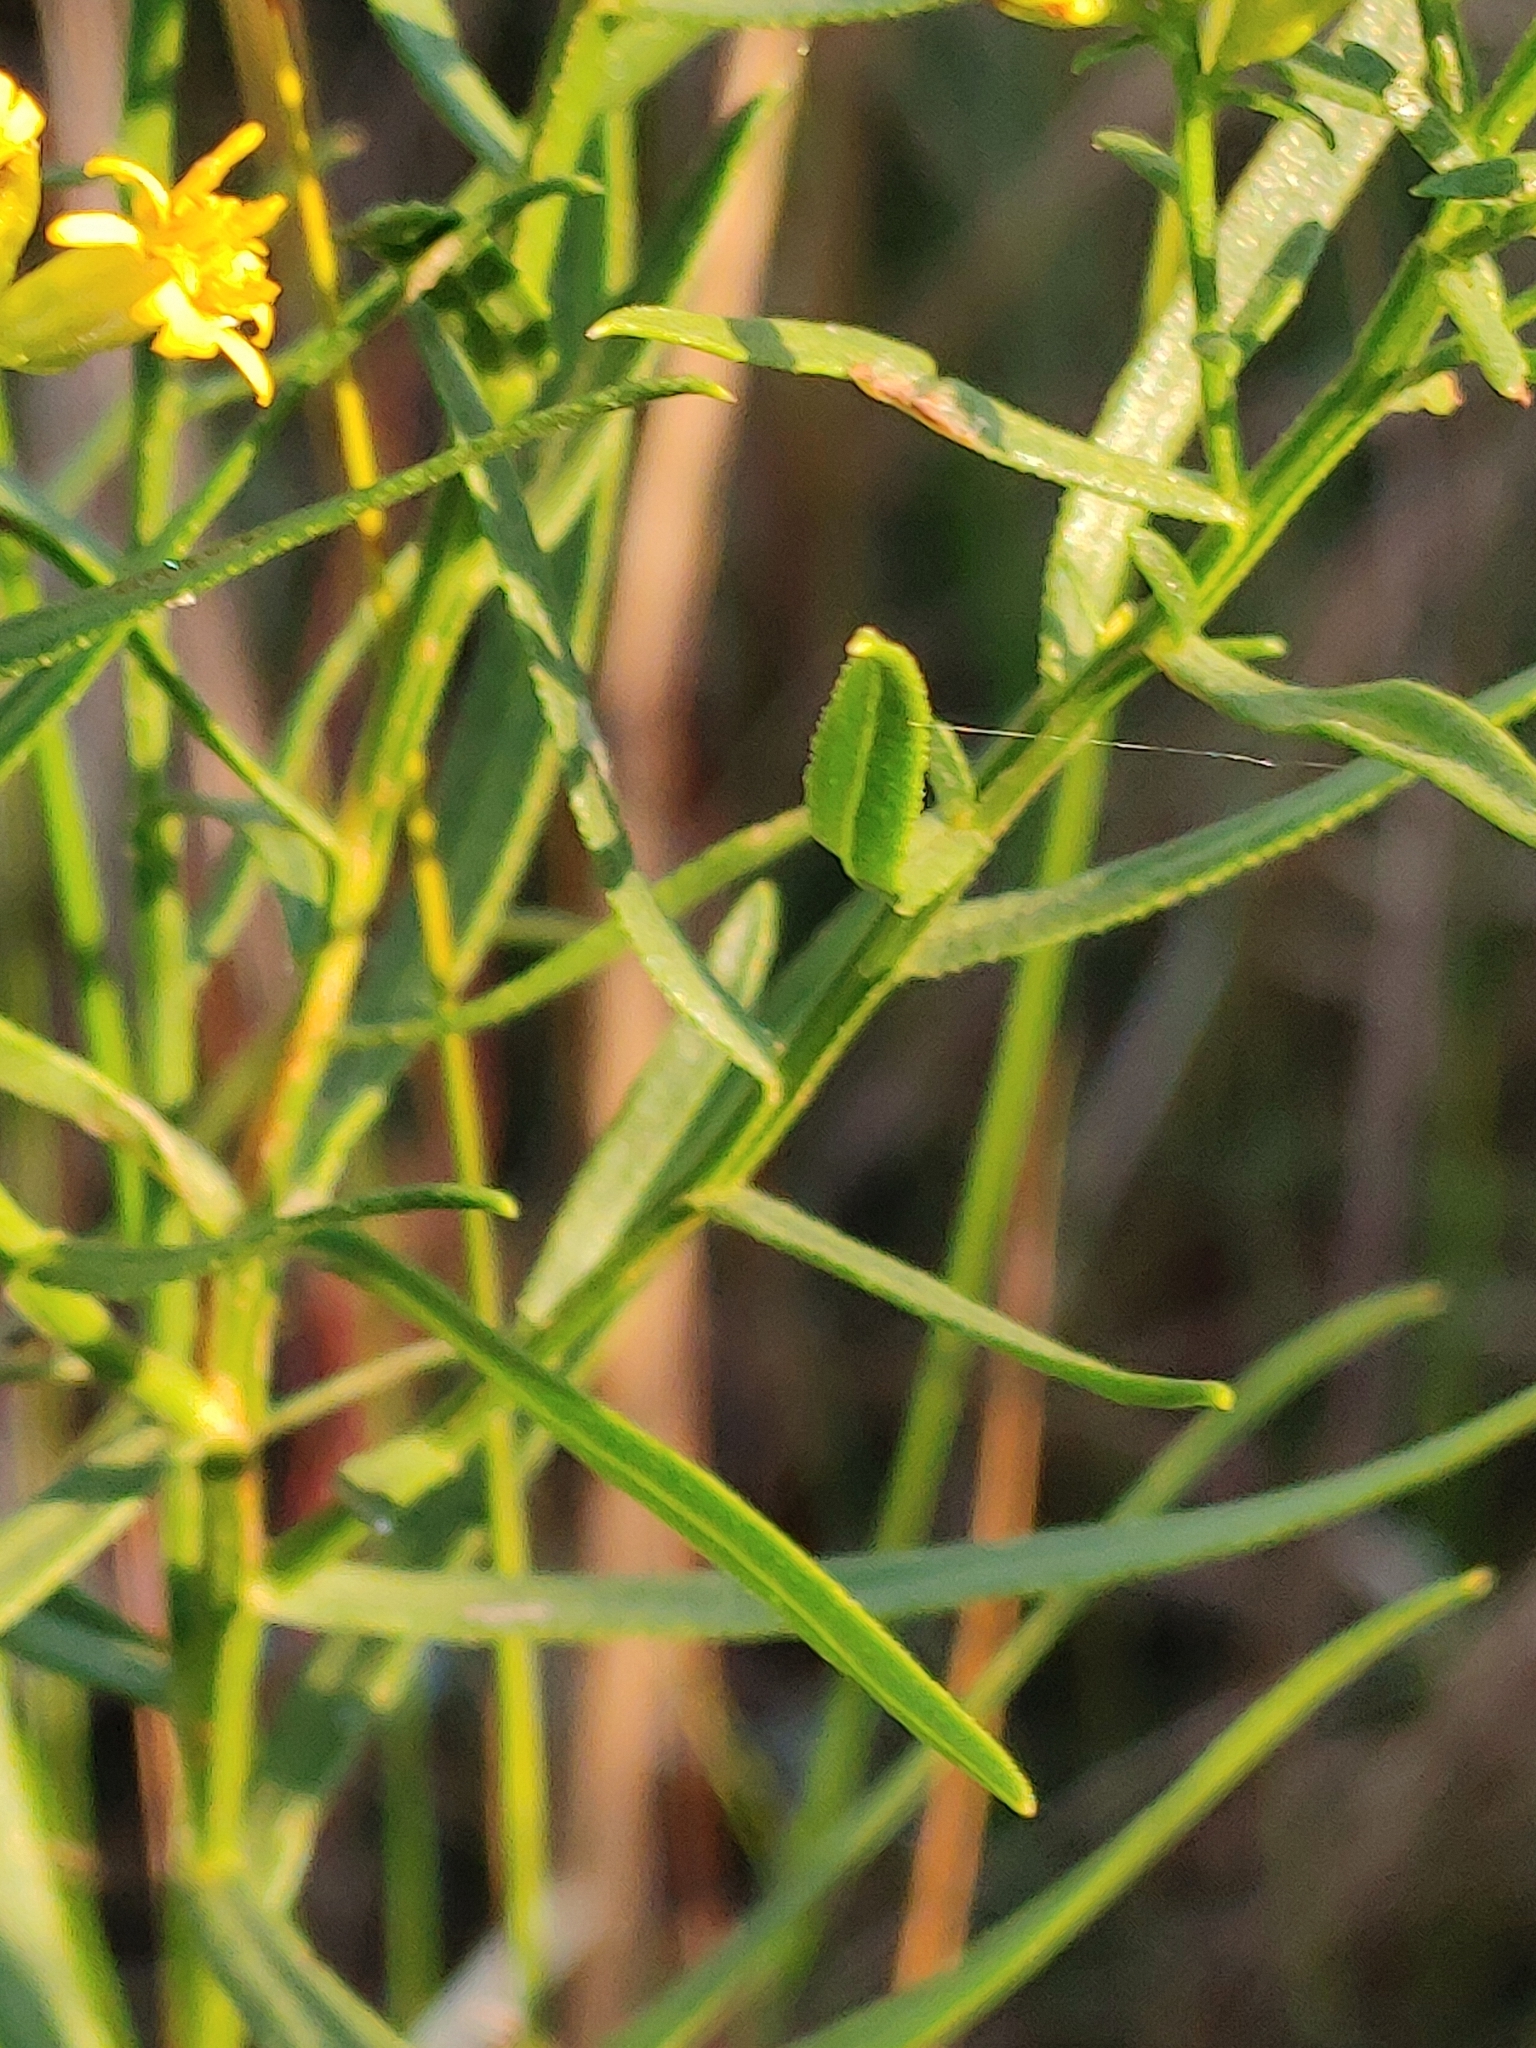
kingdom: Plantae
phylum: Tracheophyta
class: Magnoliopsida
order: Asterales
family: Asteraceae
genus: Euthamia
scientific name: Euthamia weakleyi
